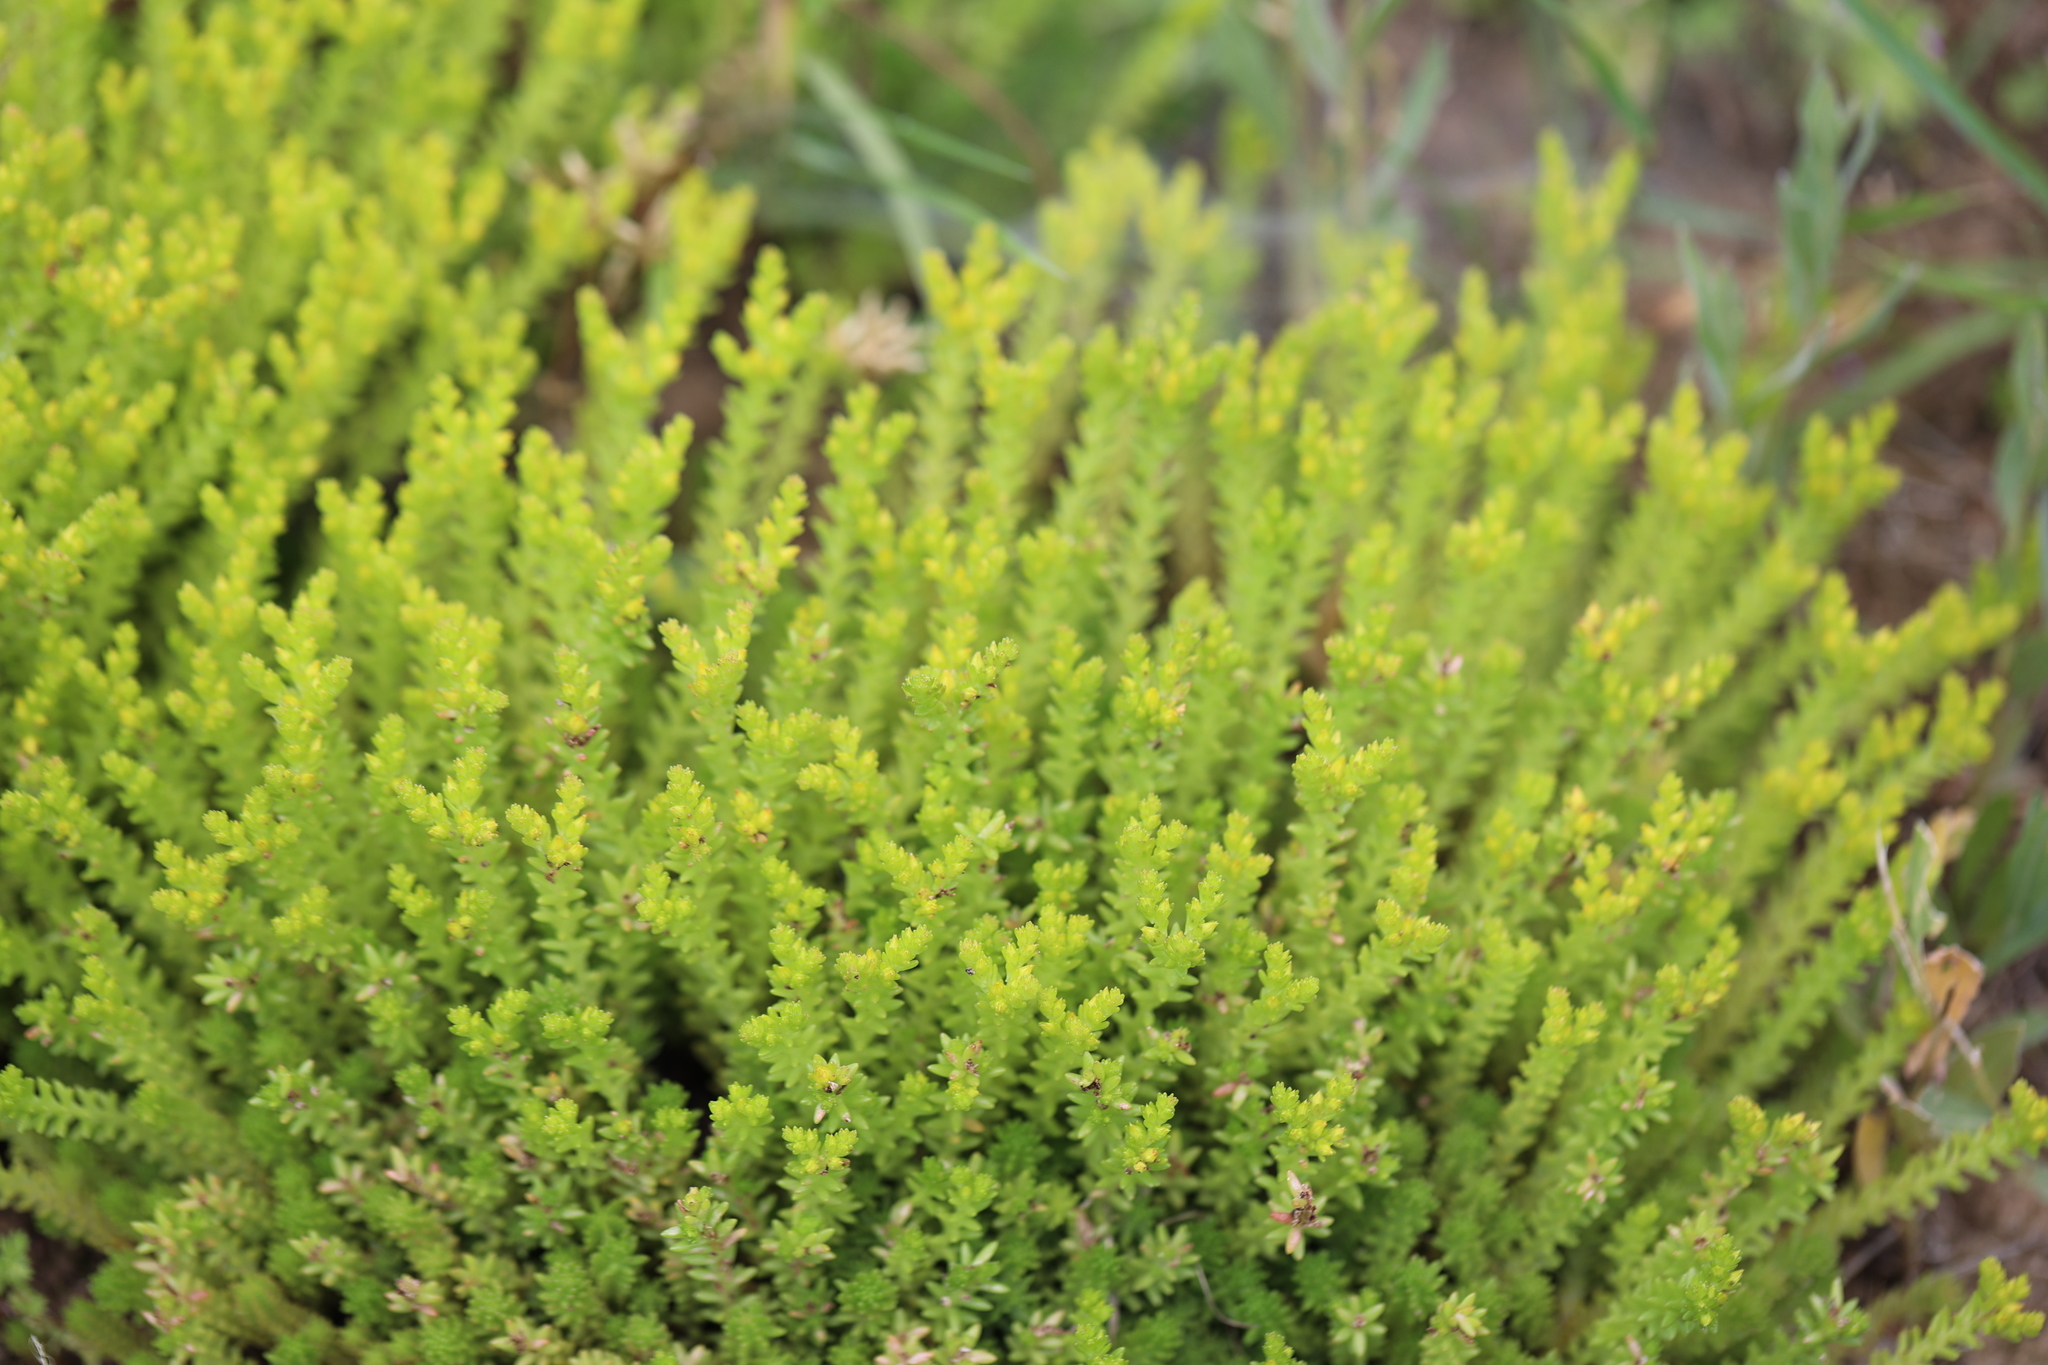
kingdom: Plantae
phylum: Tracheophyta
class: Magnoliopsida
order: Saxifragales
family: Crassulaceae
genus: Sedum
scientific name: Sedum sexangulare
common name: Tasteless stonecrop
